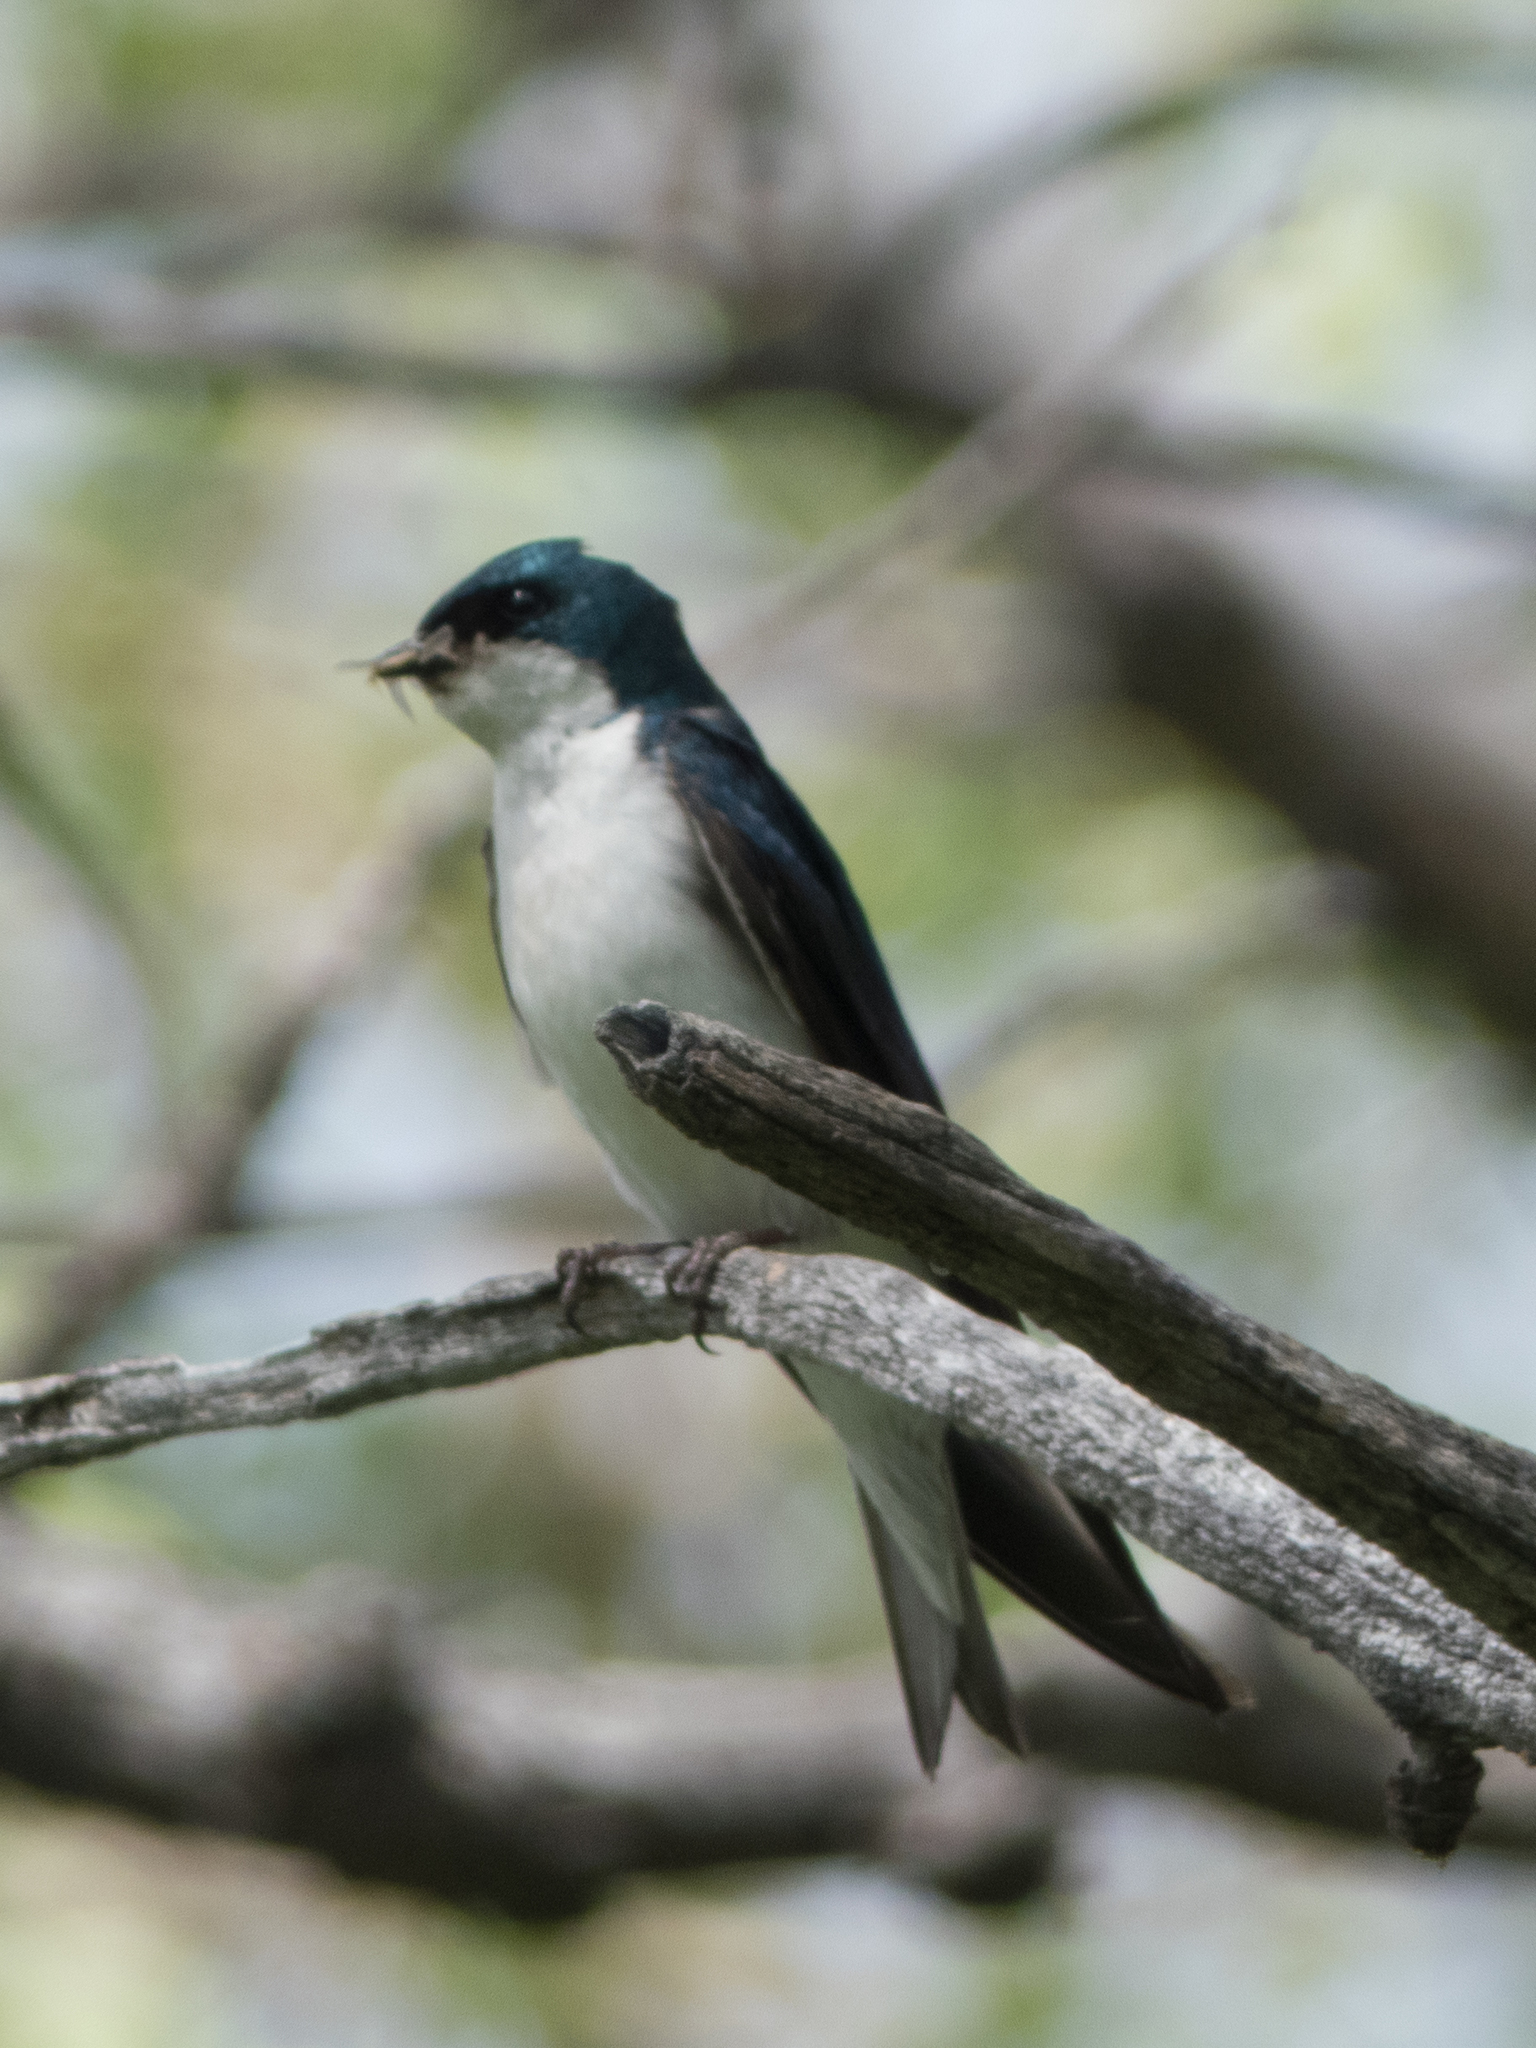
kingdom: Animalia
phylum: Chordata
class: Aves
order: Passeriformes
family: Hirundinidae
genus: Tachycineta
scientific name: Tachycineta bicolor
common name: Tree swallow
